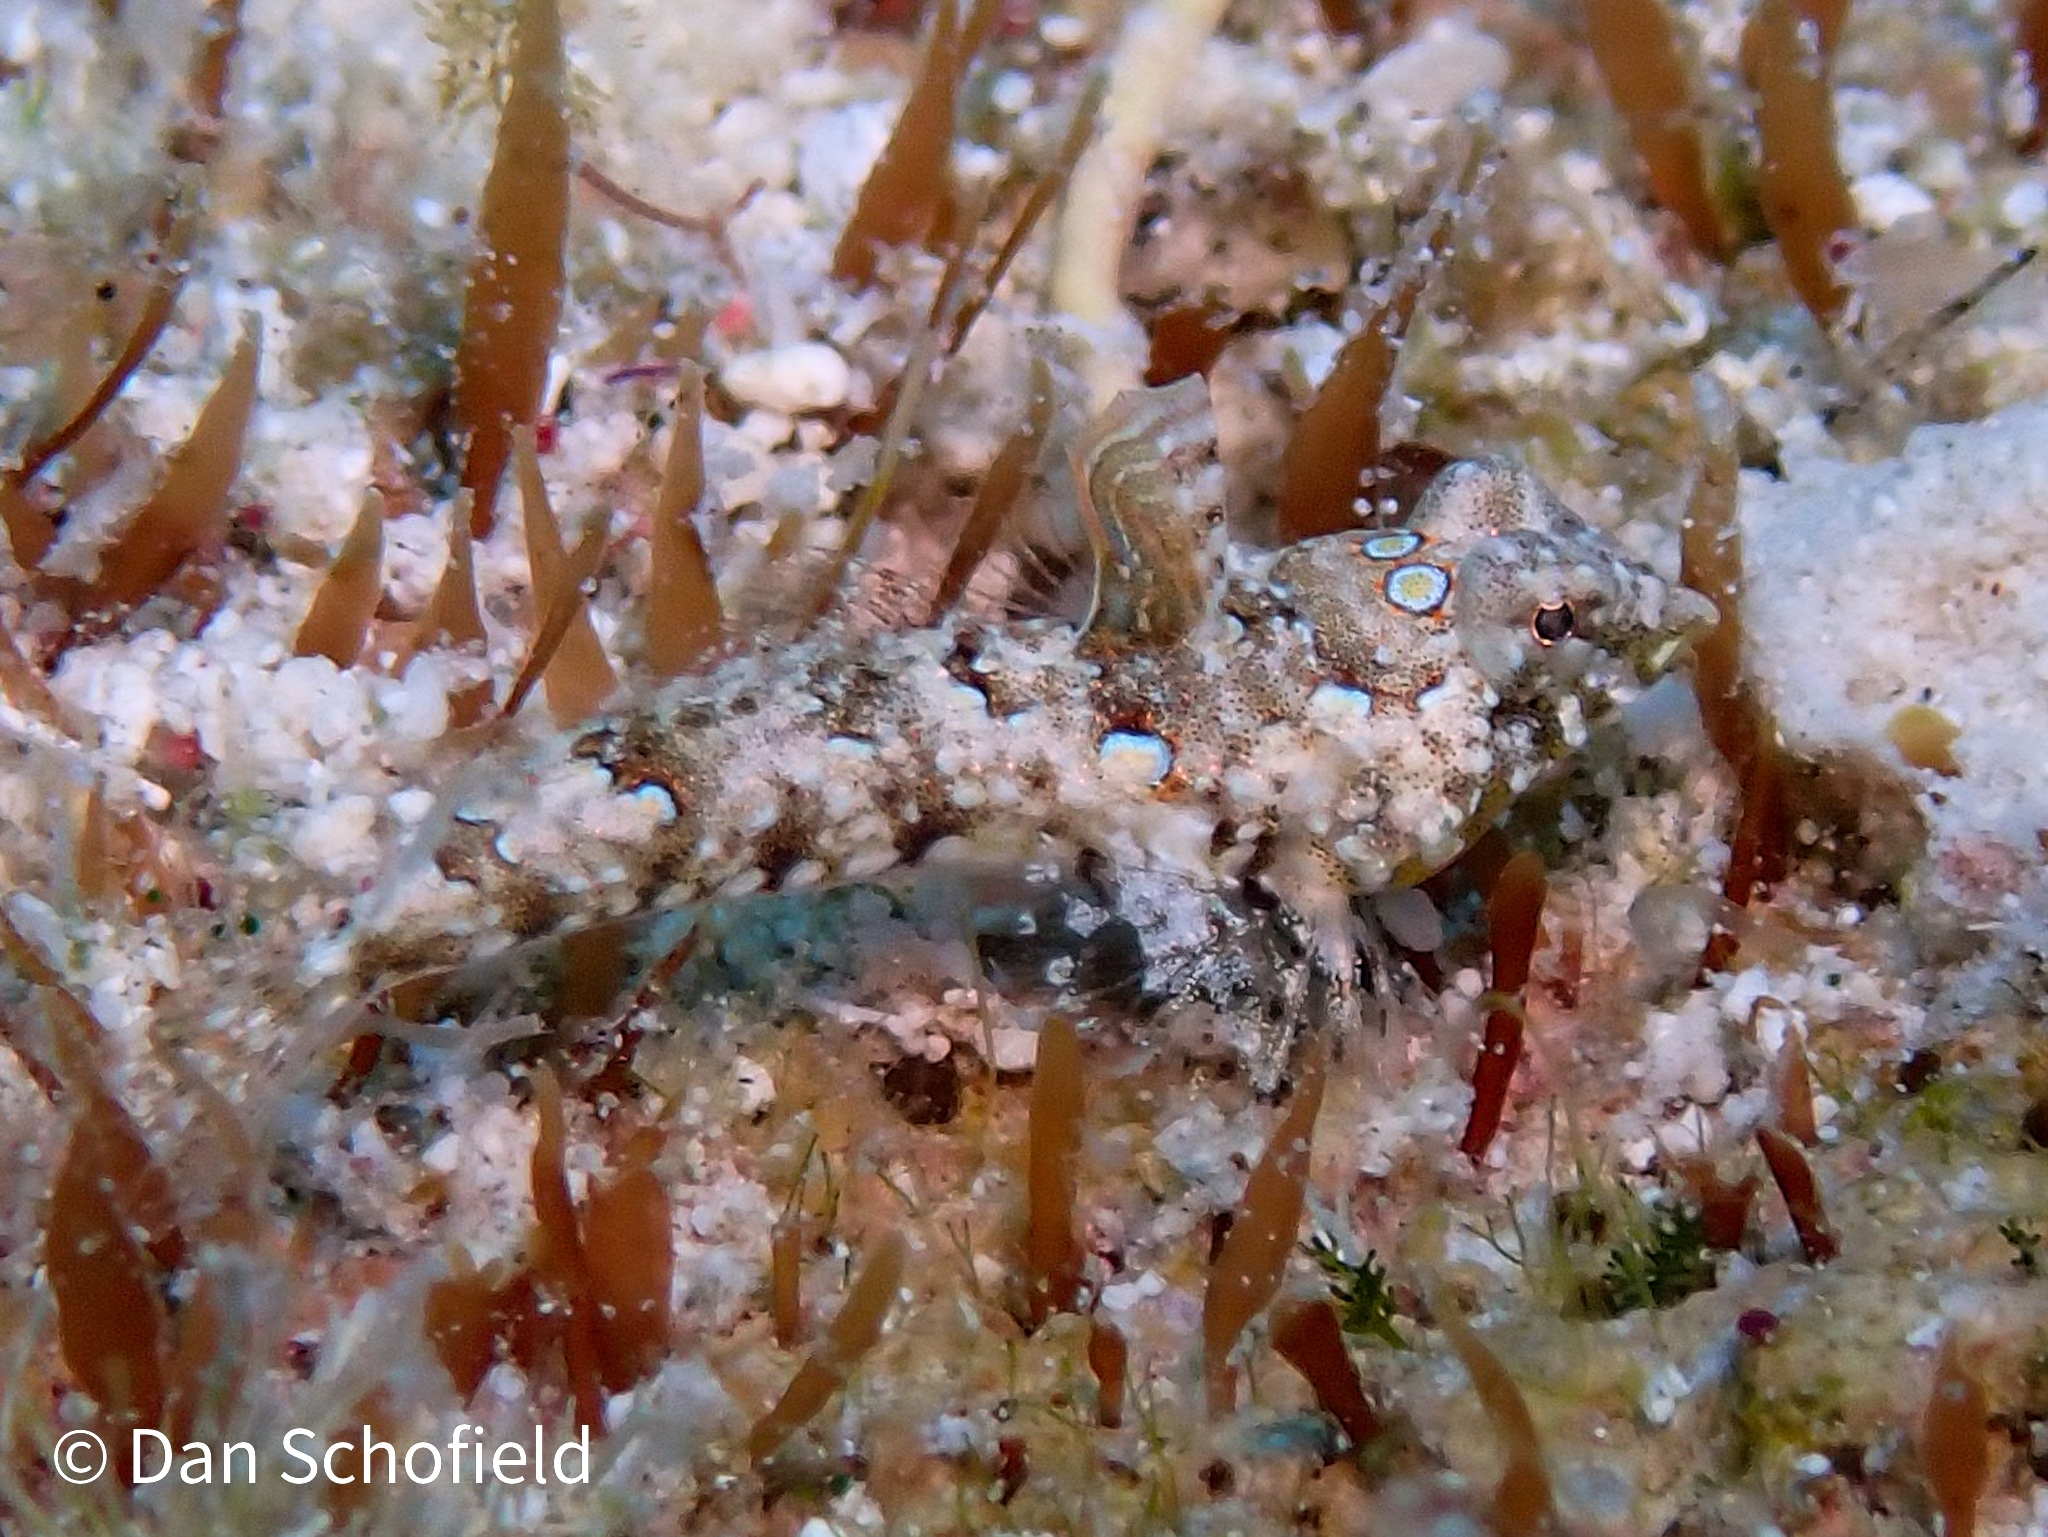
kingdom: Animalia
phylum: Chordata
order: Perciformes
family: Callionymidae
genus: Callionymus
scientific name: Callionymus bairdi
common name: Lancer dragonet
